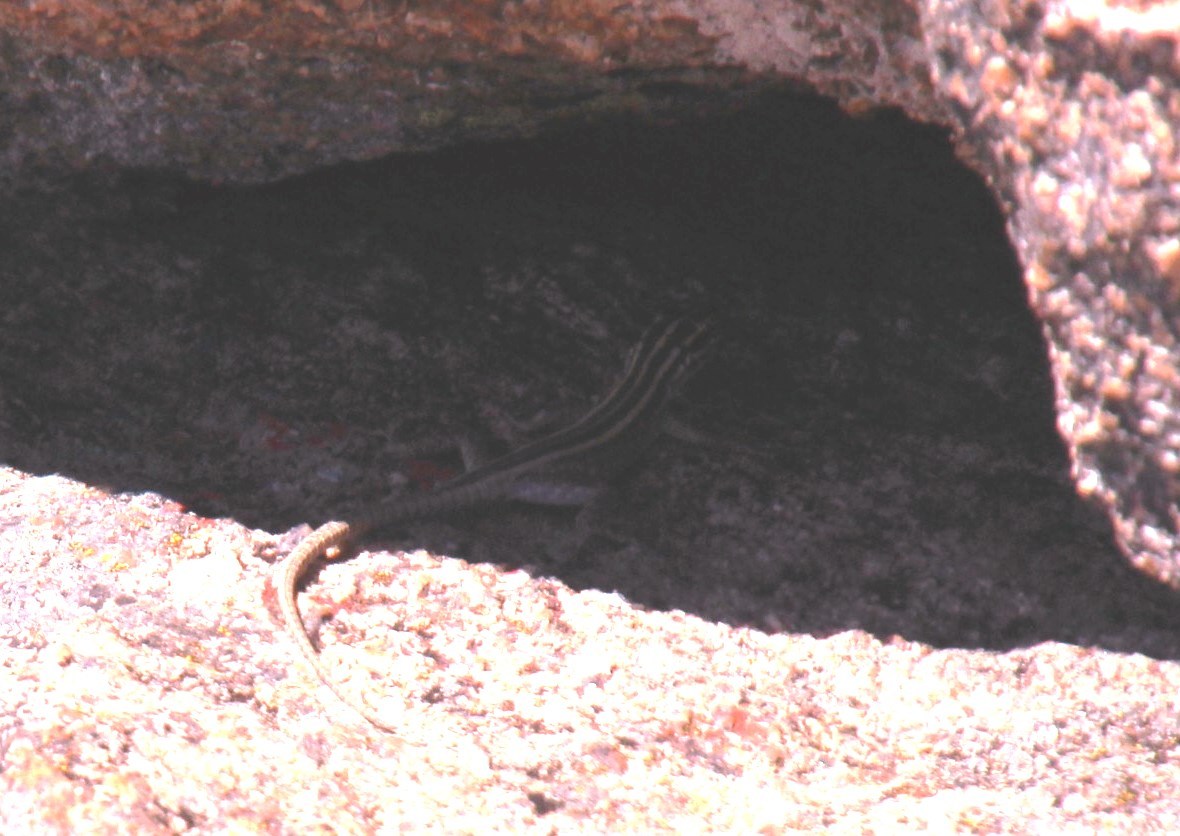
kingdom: Animalia
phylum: Chordata
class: Squamata
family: Cordylidae
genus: Platysaurus
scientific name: Platysaurus capensis
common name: Namaqua flat lizard
